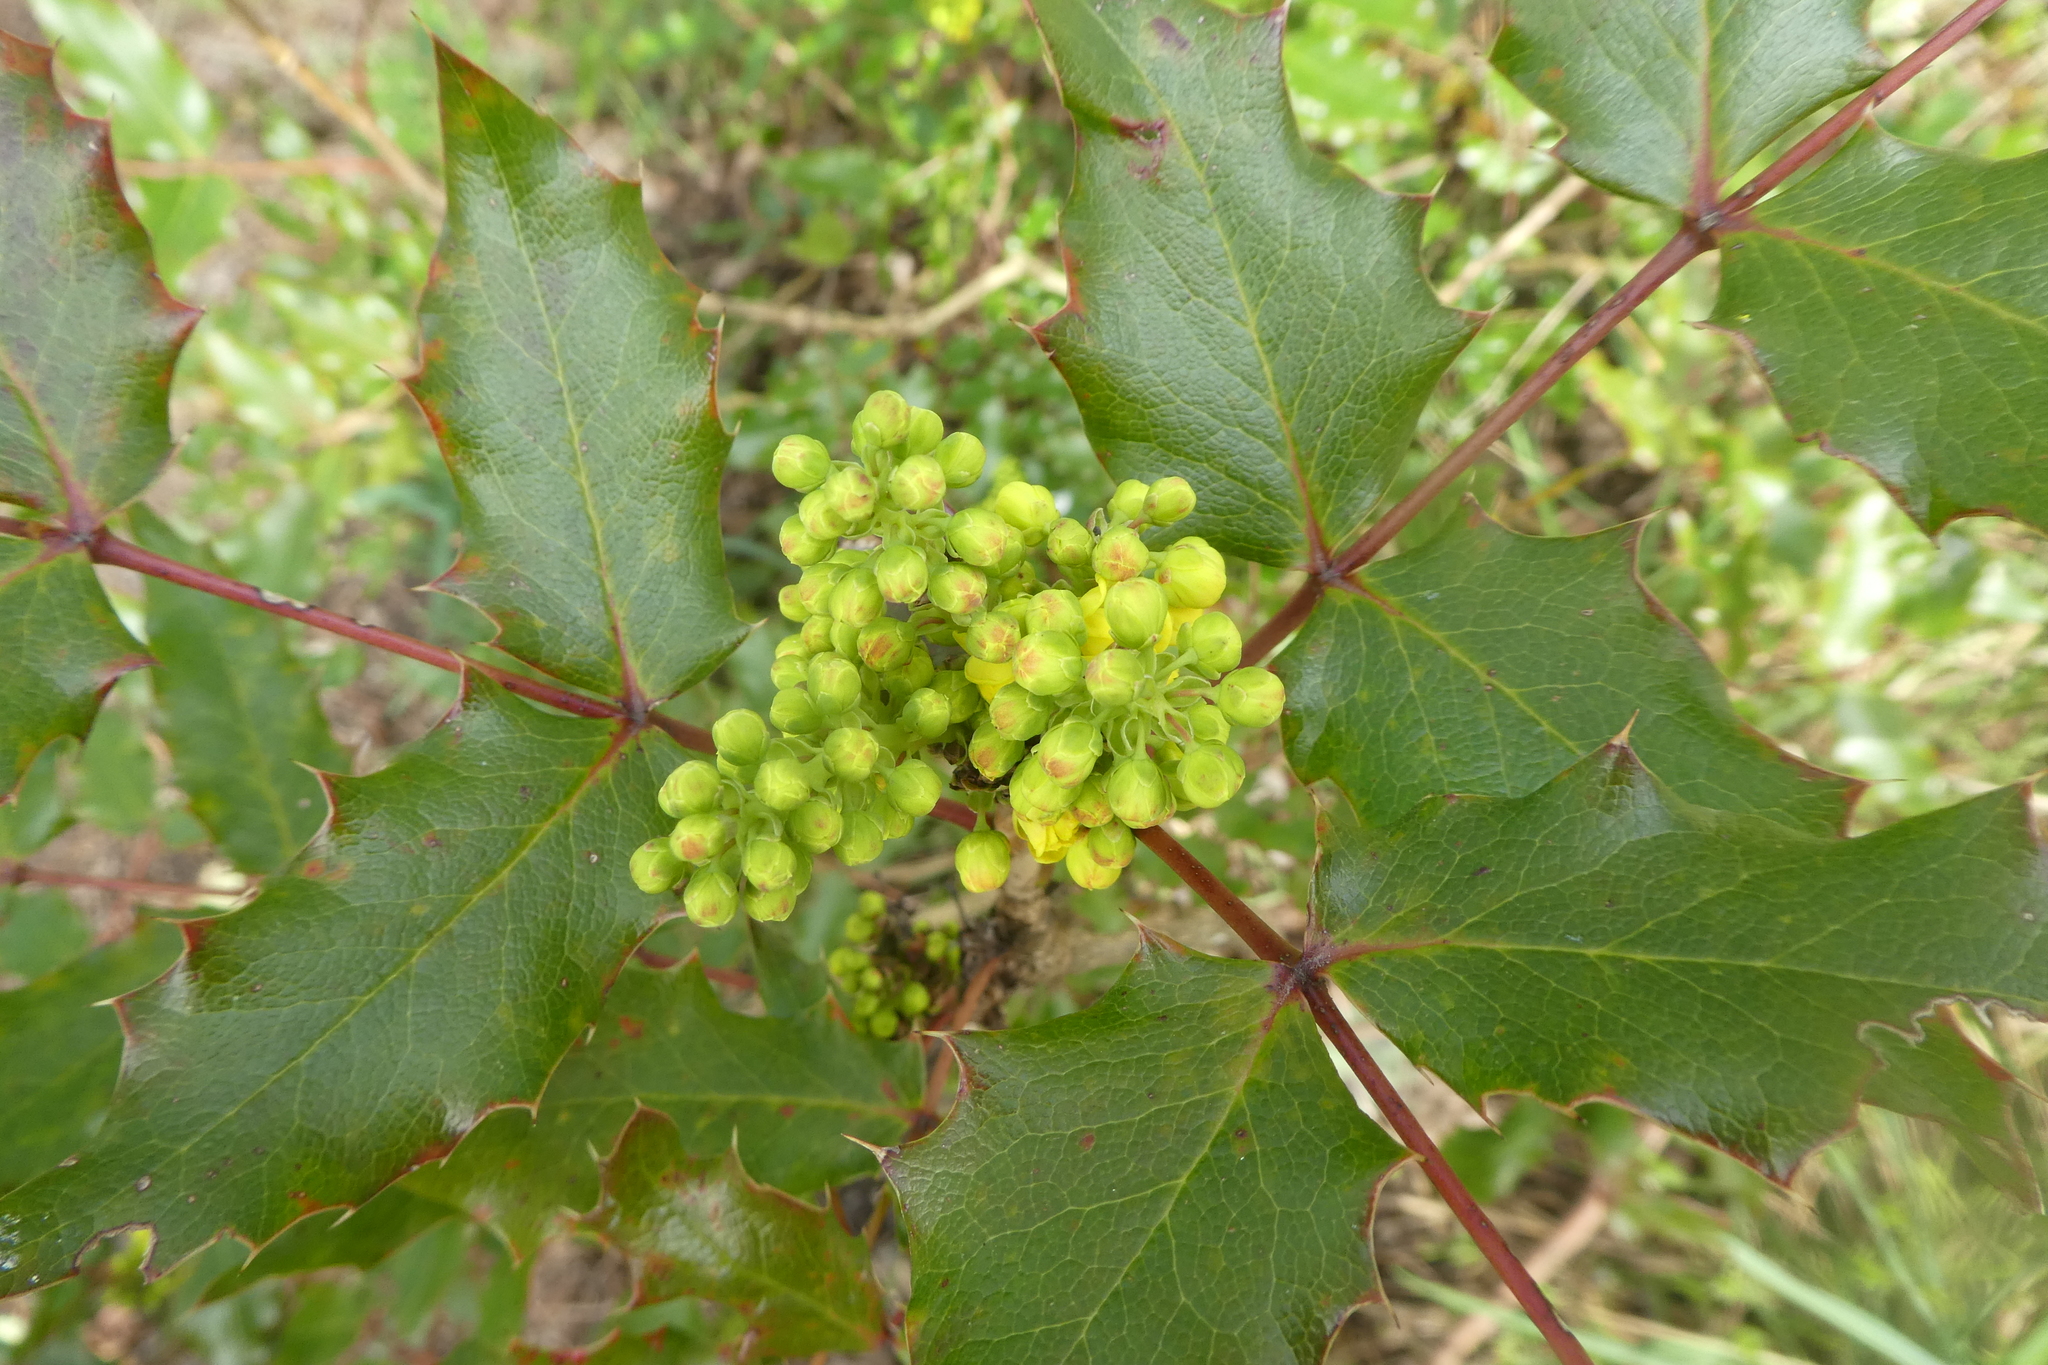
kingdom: Plantae
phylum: Tracheophyta
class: Magnoliopsida
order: Ranunculales
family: Berberidaceae
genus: Mahonia
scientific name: Mahonia aquifolium
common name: Oregon-grape
